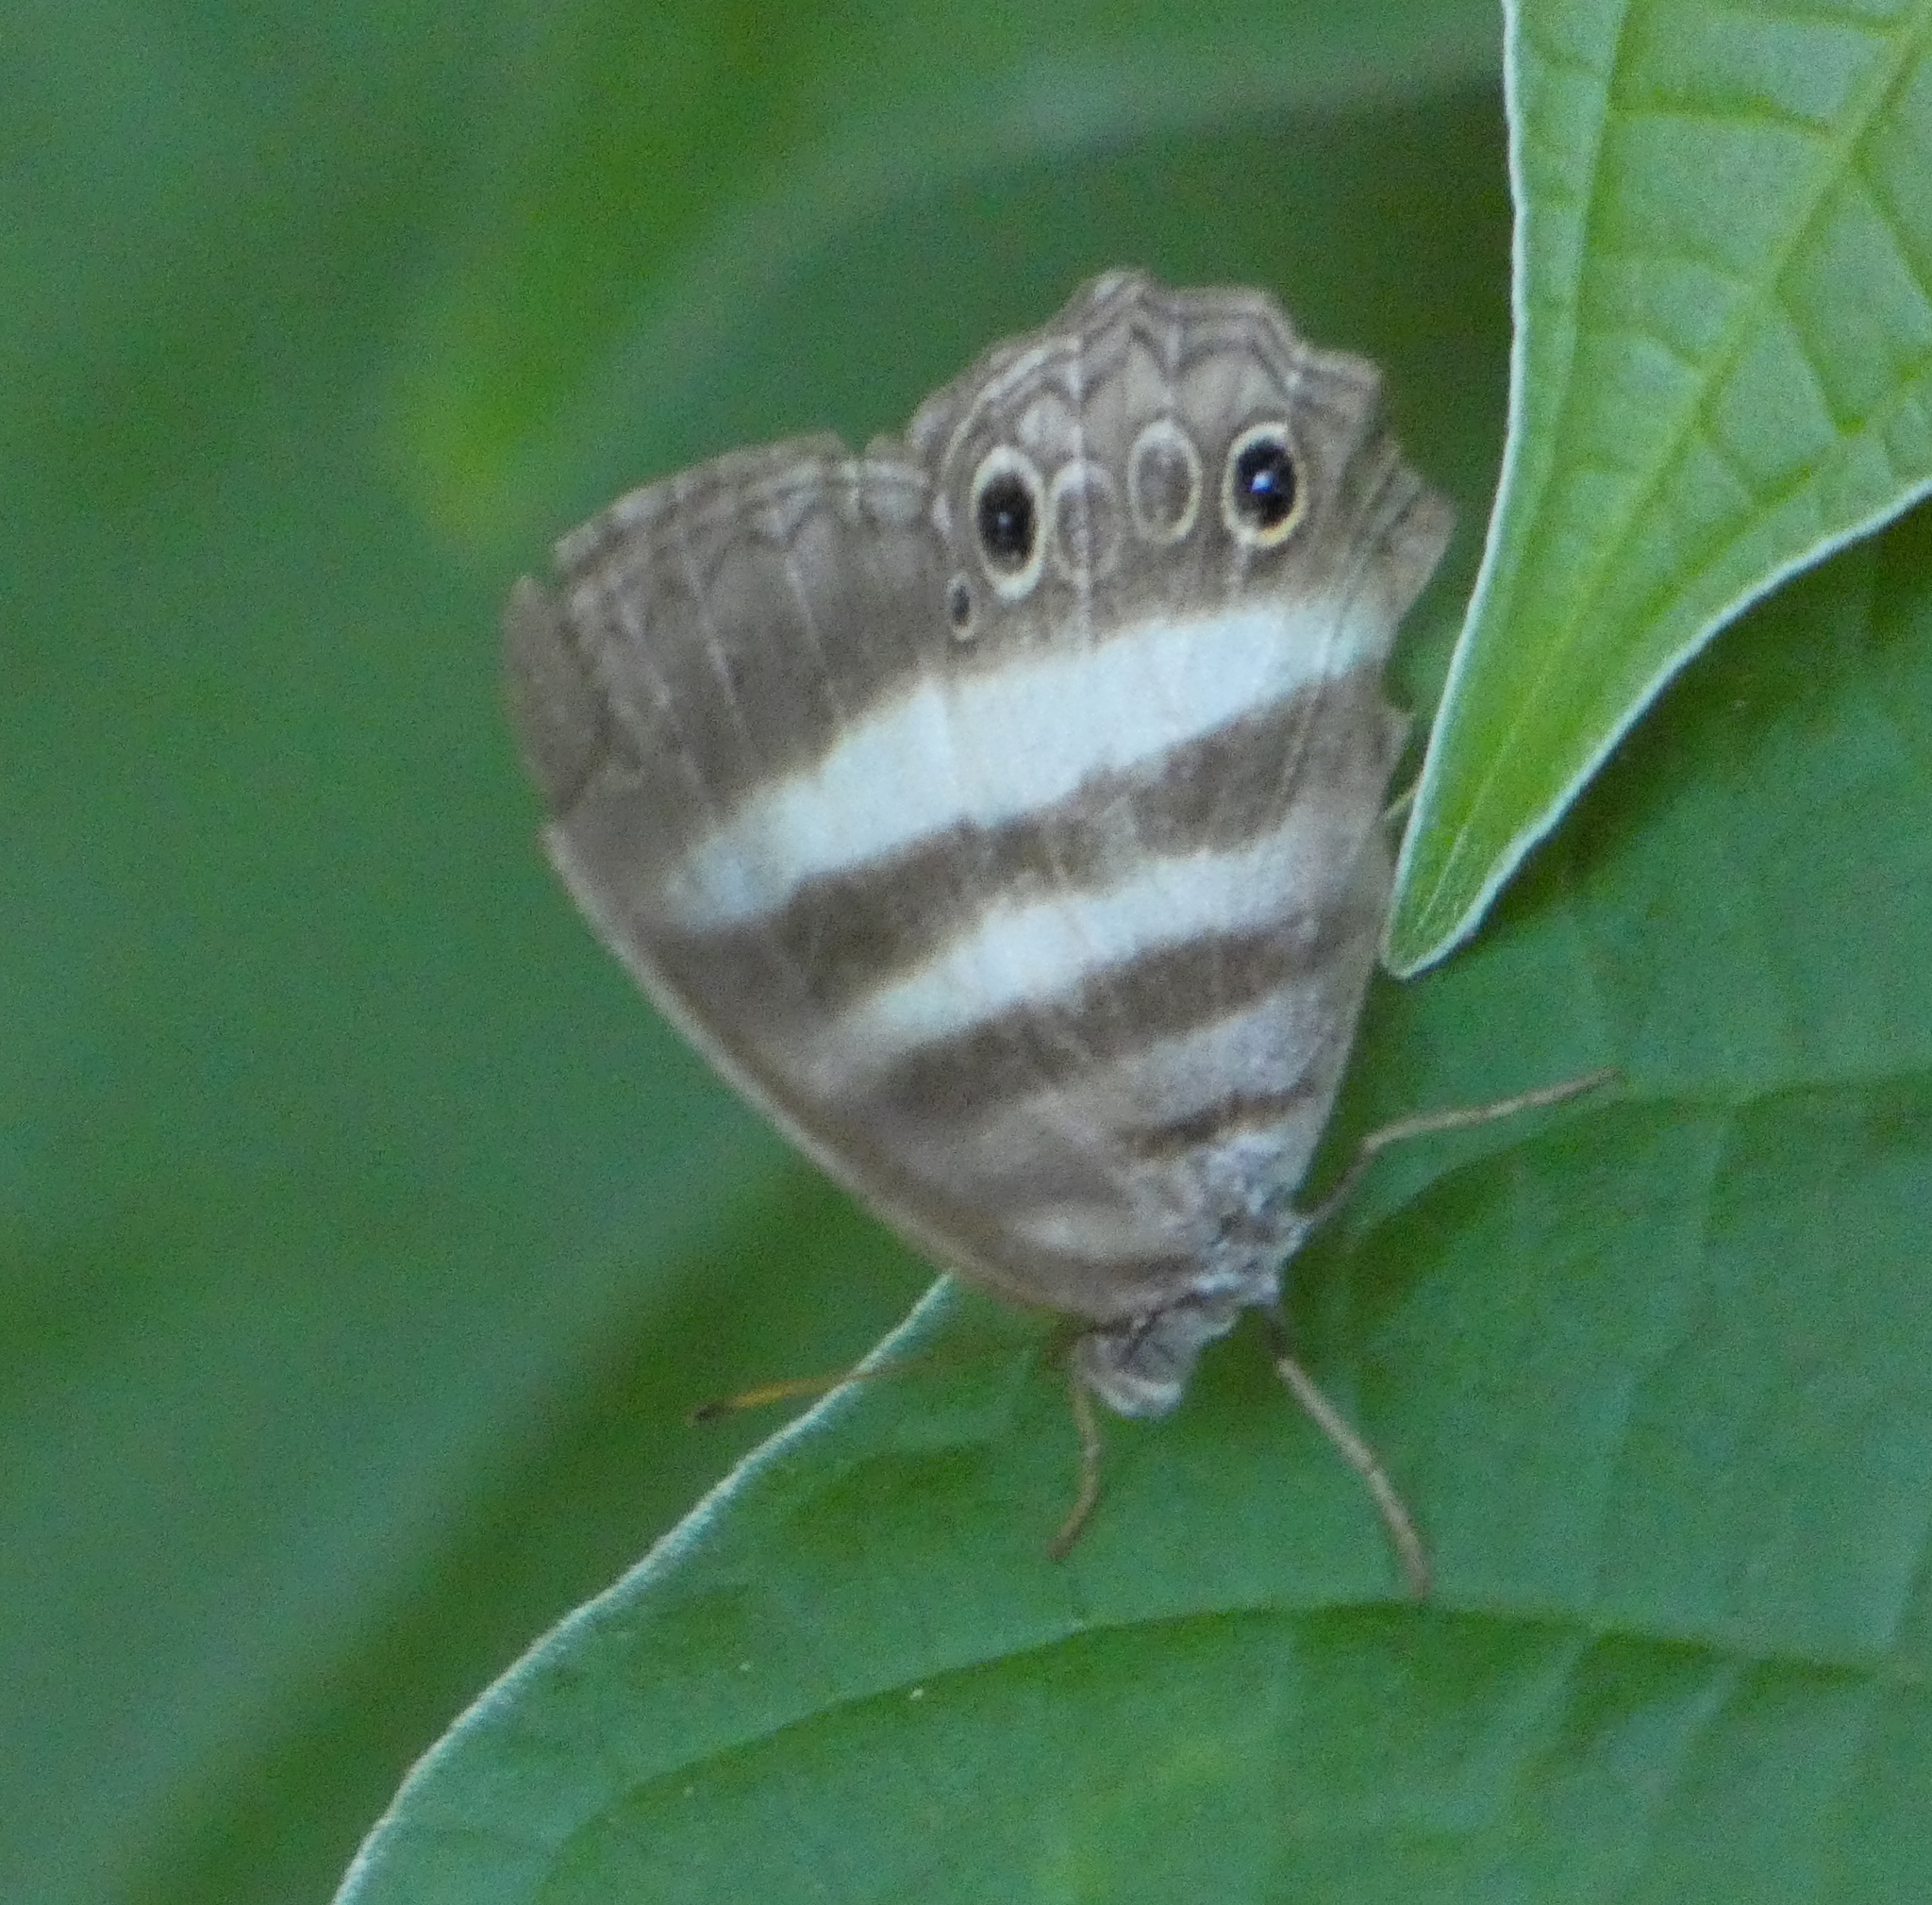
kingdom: Animalia
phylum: Arthropoda
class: Insecta
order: Lepidoptera
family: Nymphalidae
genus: Pareuptychia
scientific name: Pareuptychia hesione
